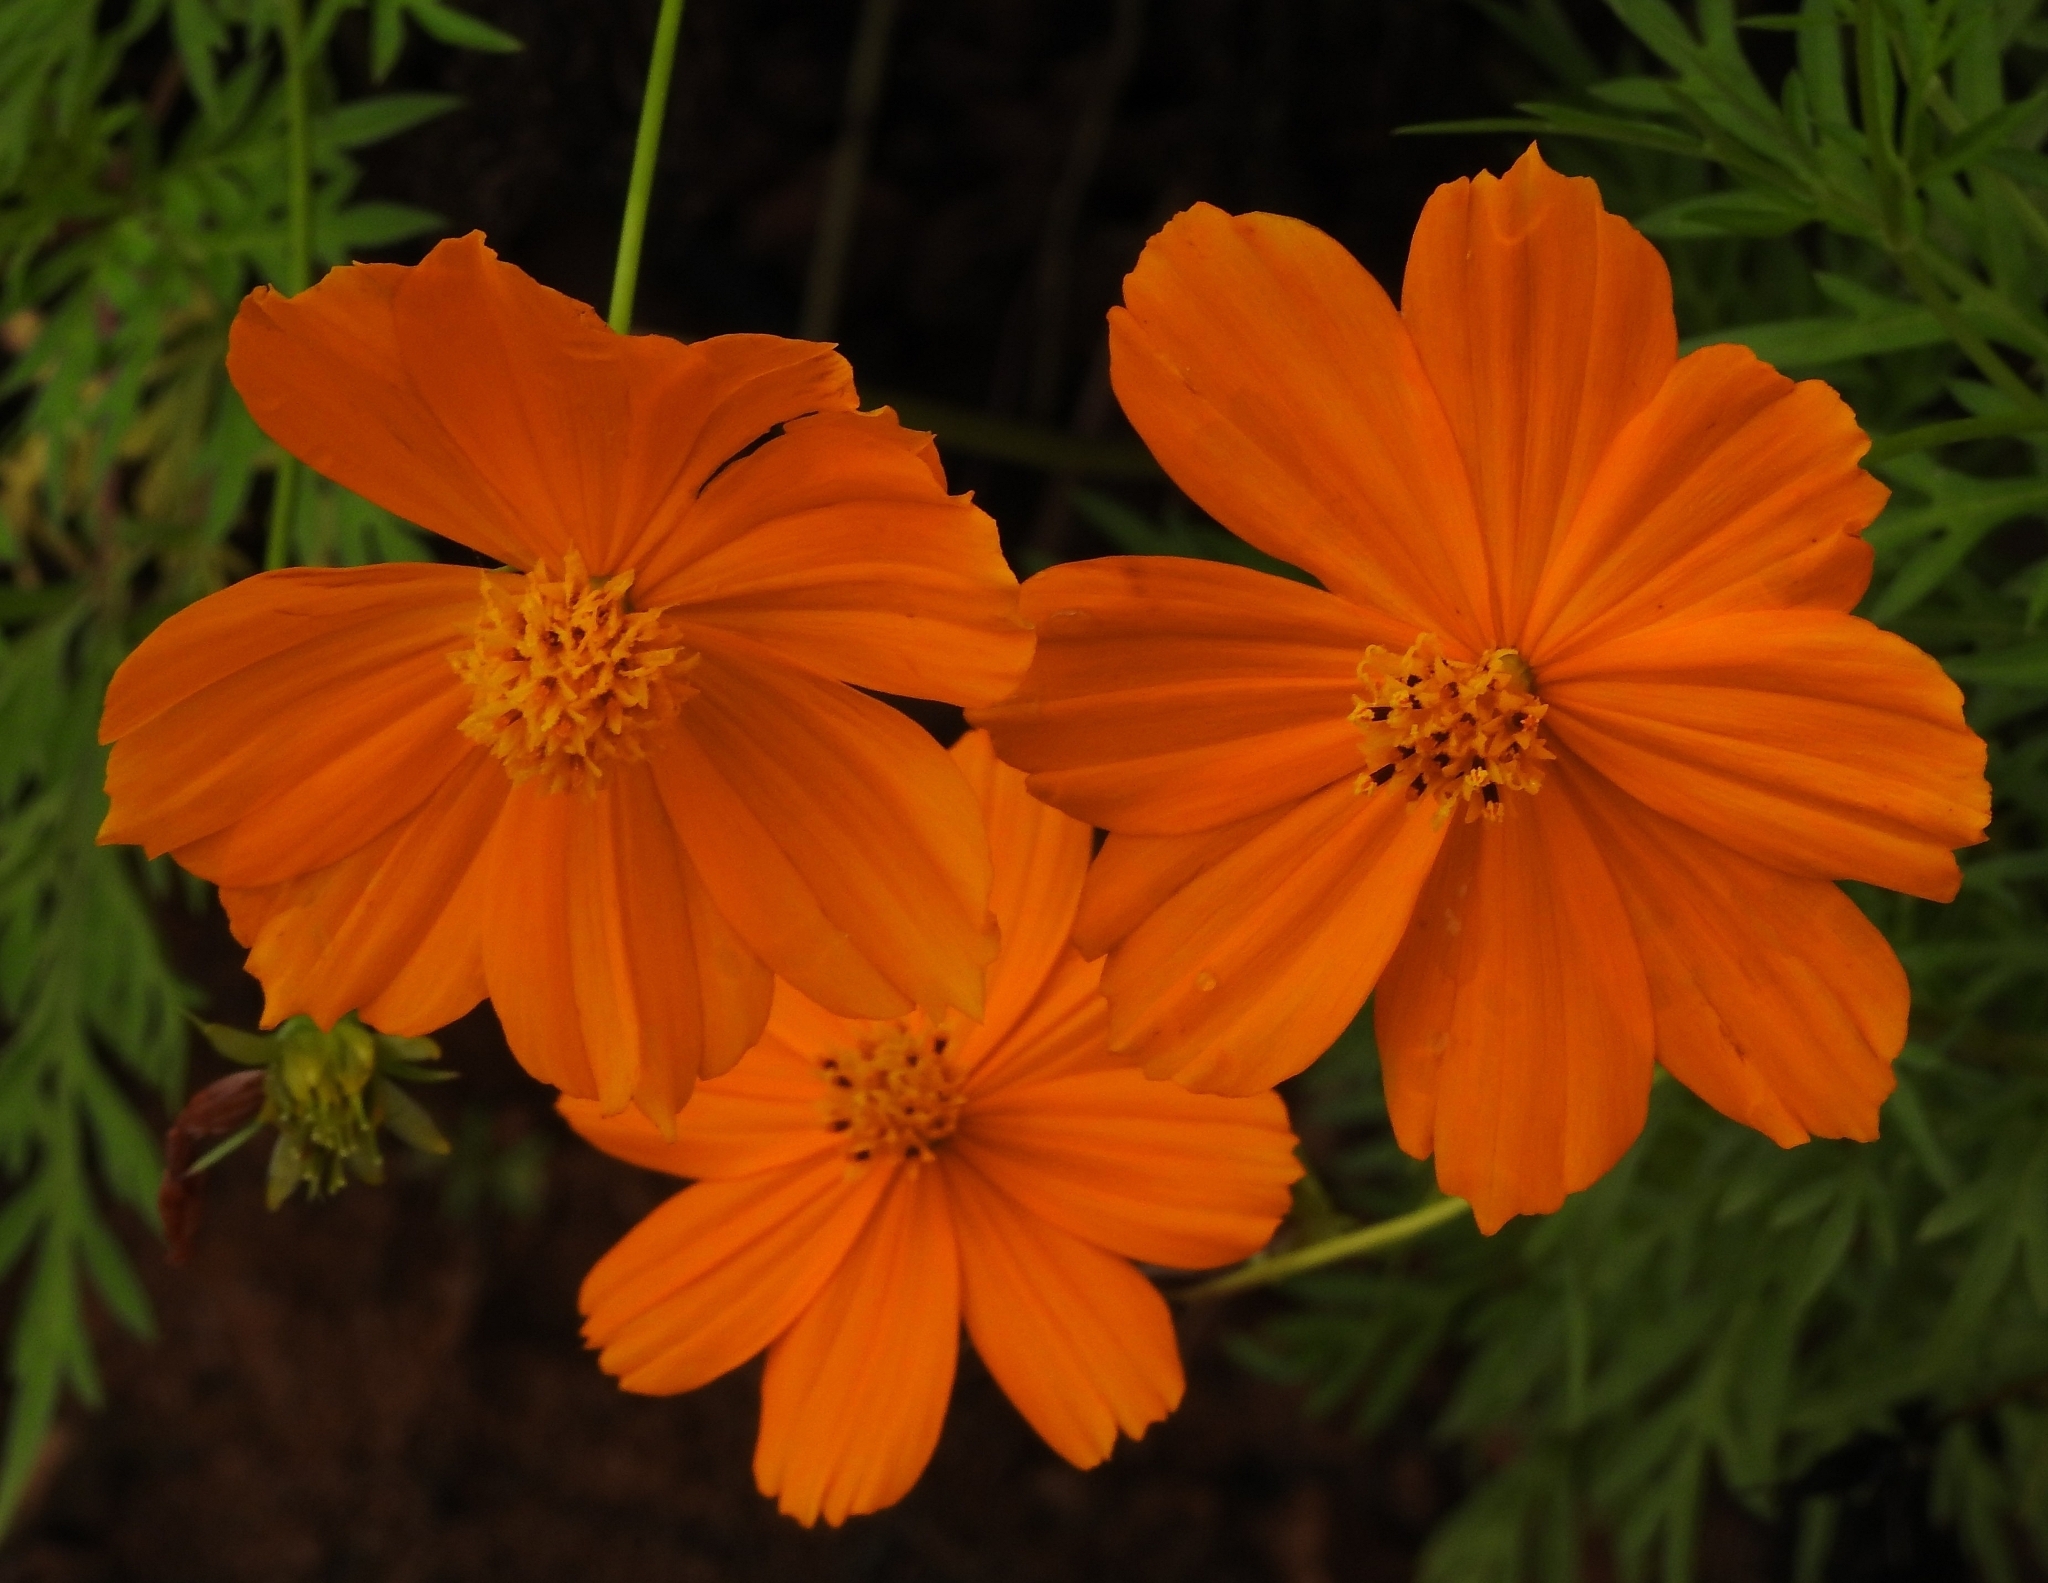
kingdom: Plantae
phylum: Tracheophyta
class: Magnoliopsida
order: Asterales
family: Asteraceae
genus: Cosmos
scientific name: Cosmos sulphureus
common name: Sulphur cosmos
